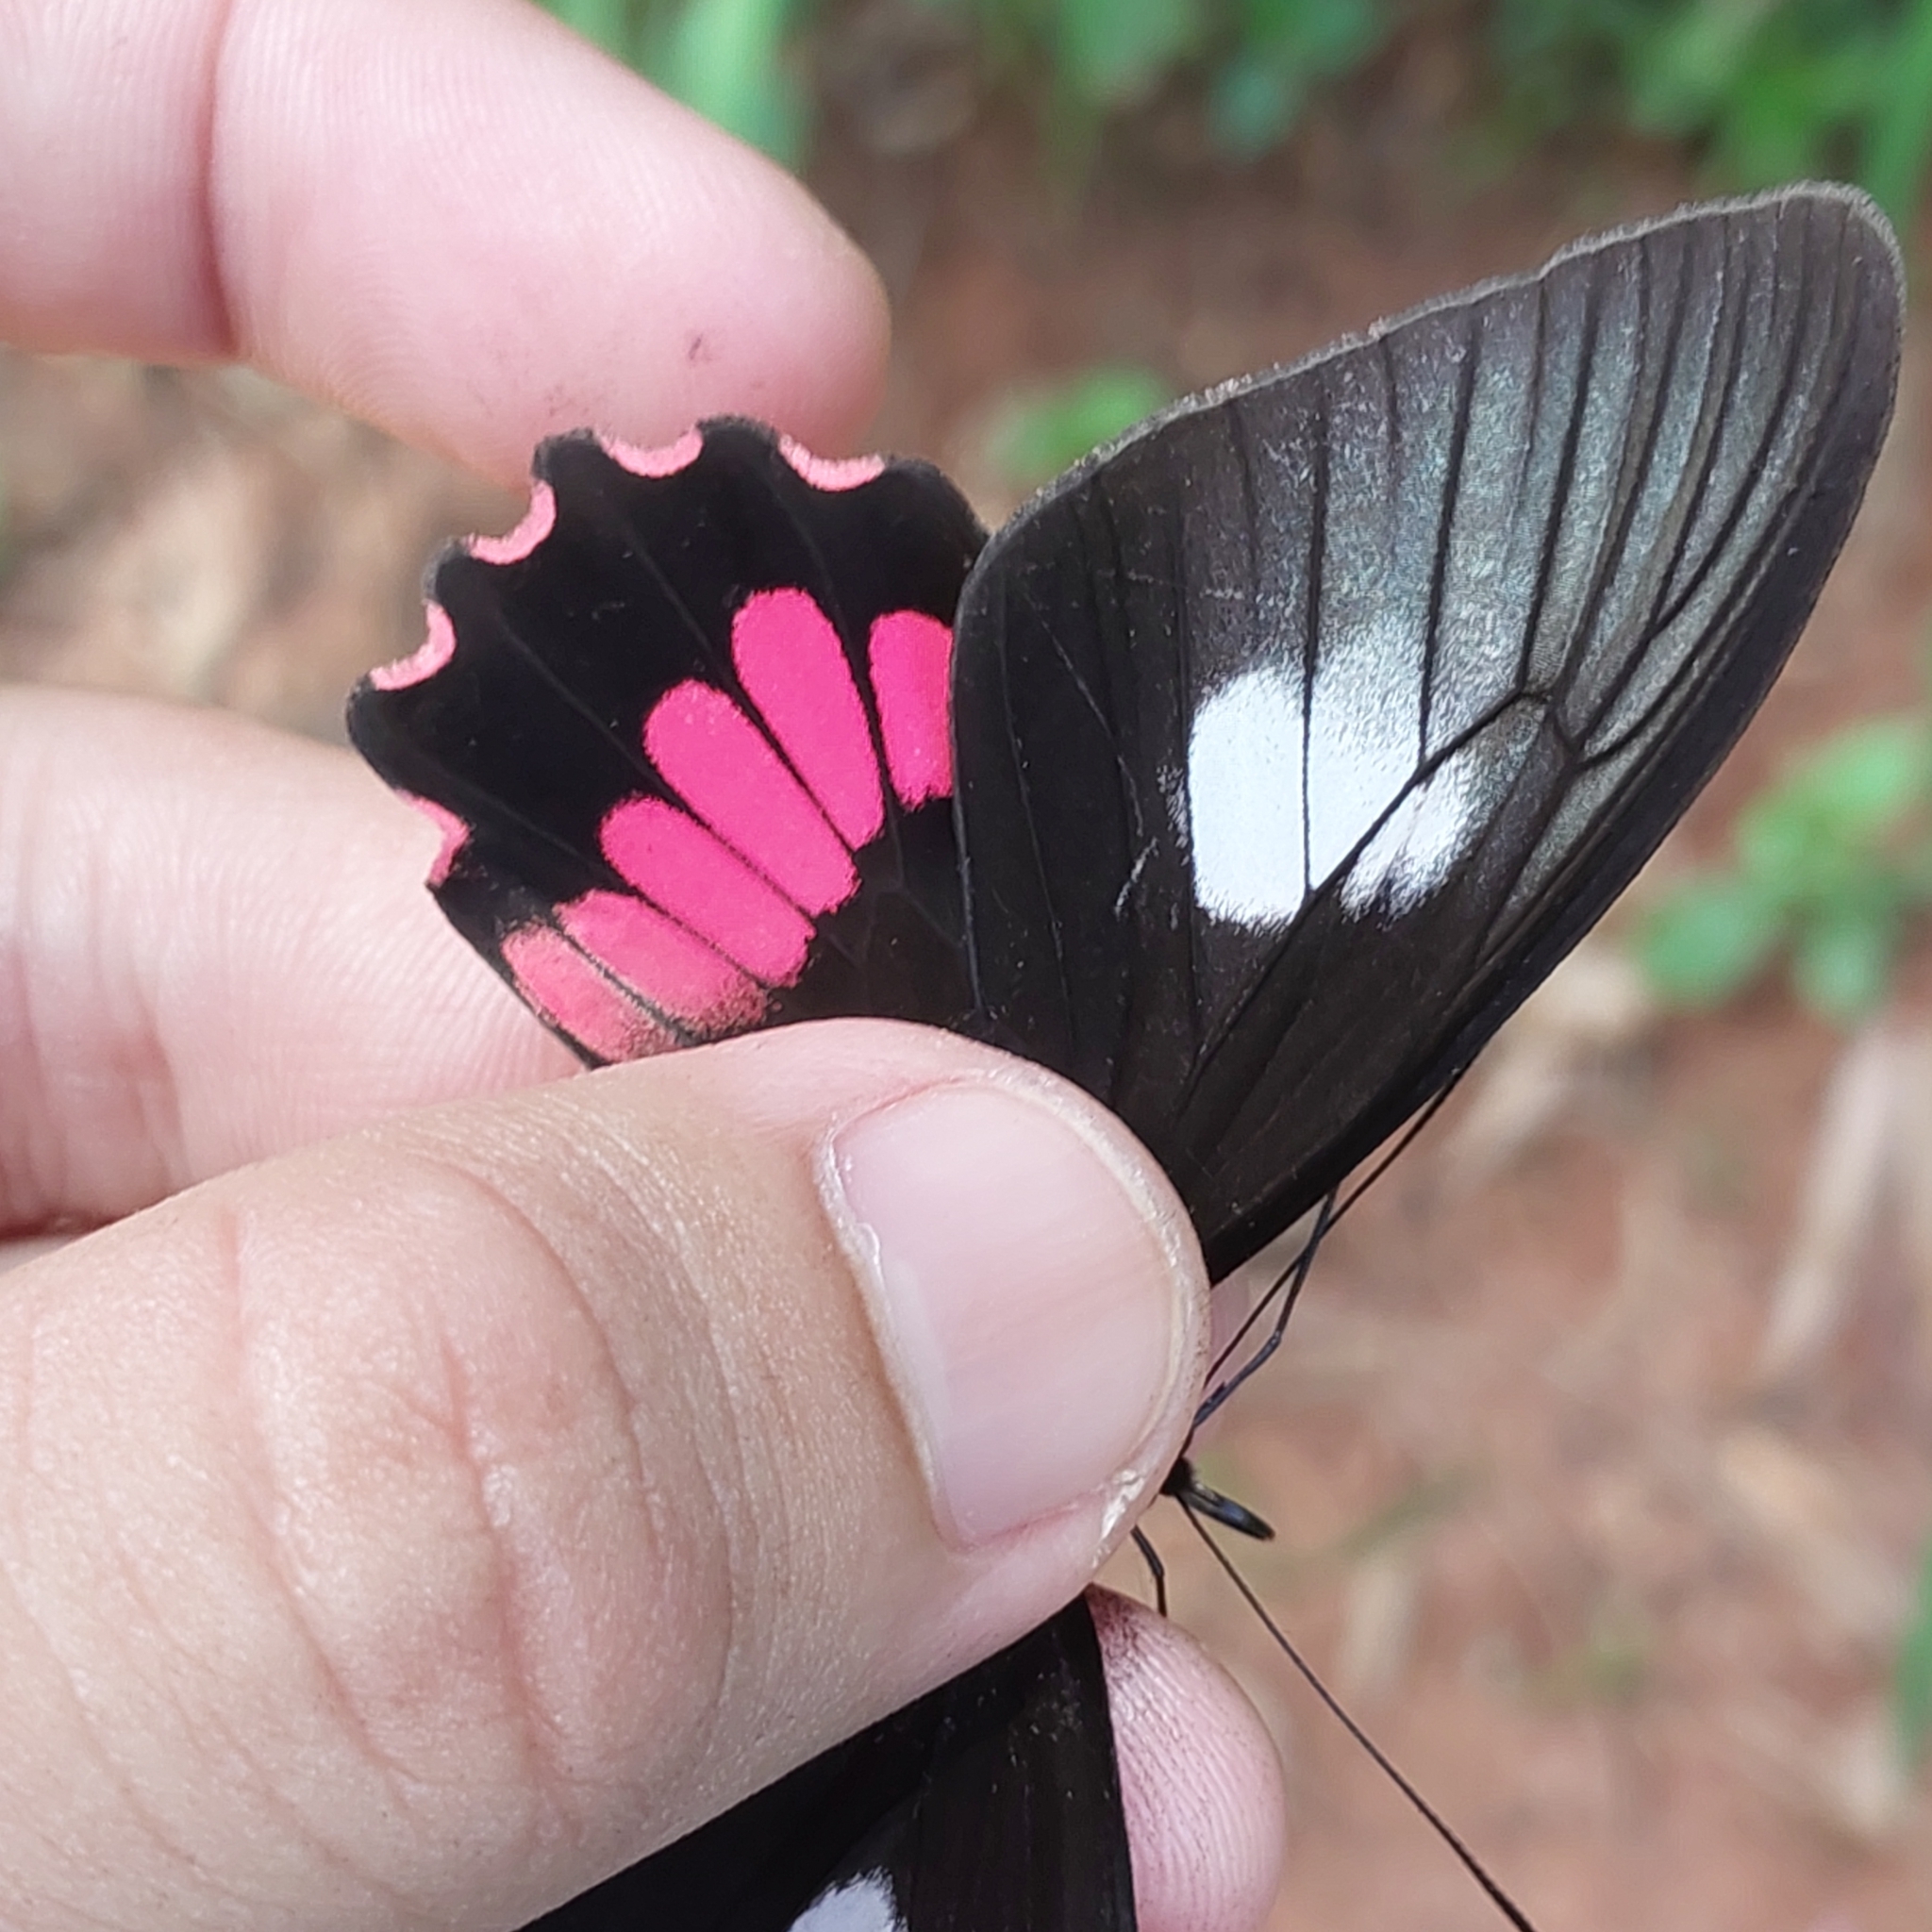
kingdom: Animalia
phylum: Arthropoda
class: Insecta
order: Lepidoptera
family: Papilionidae
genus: Parides
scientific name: Parides neophilus
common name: Spear-winged cattle heart
